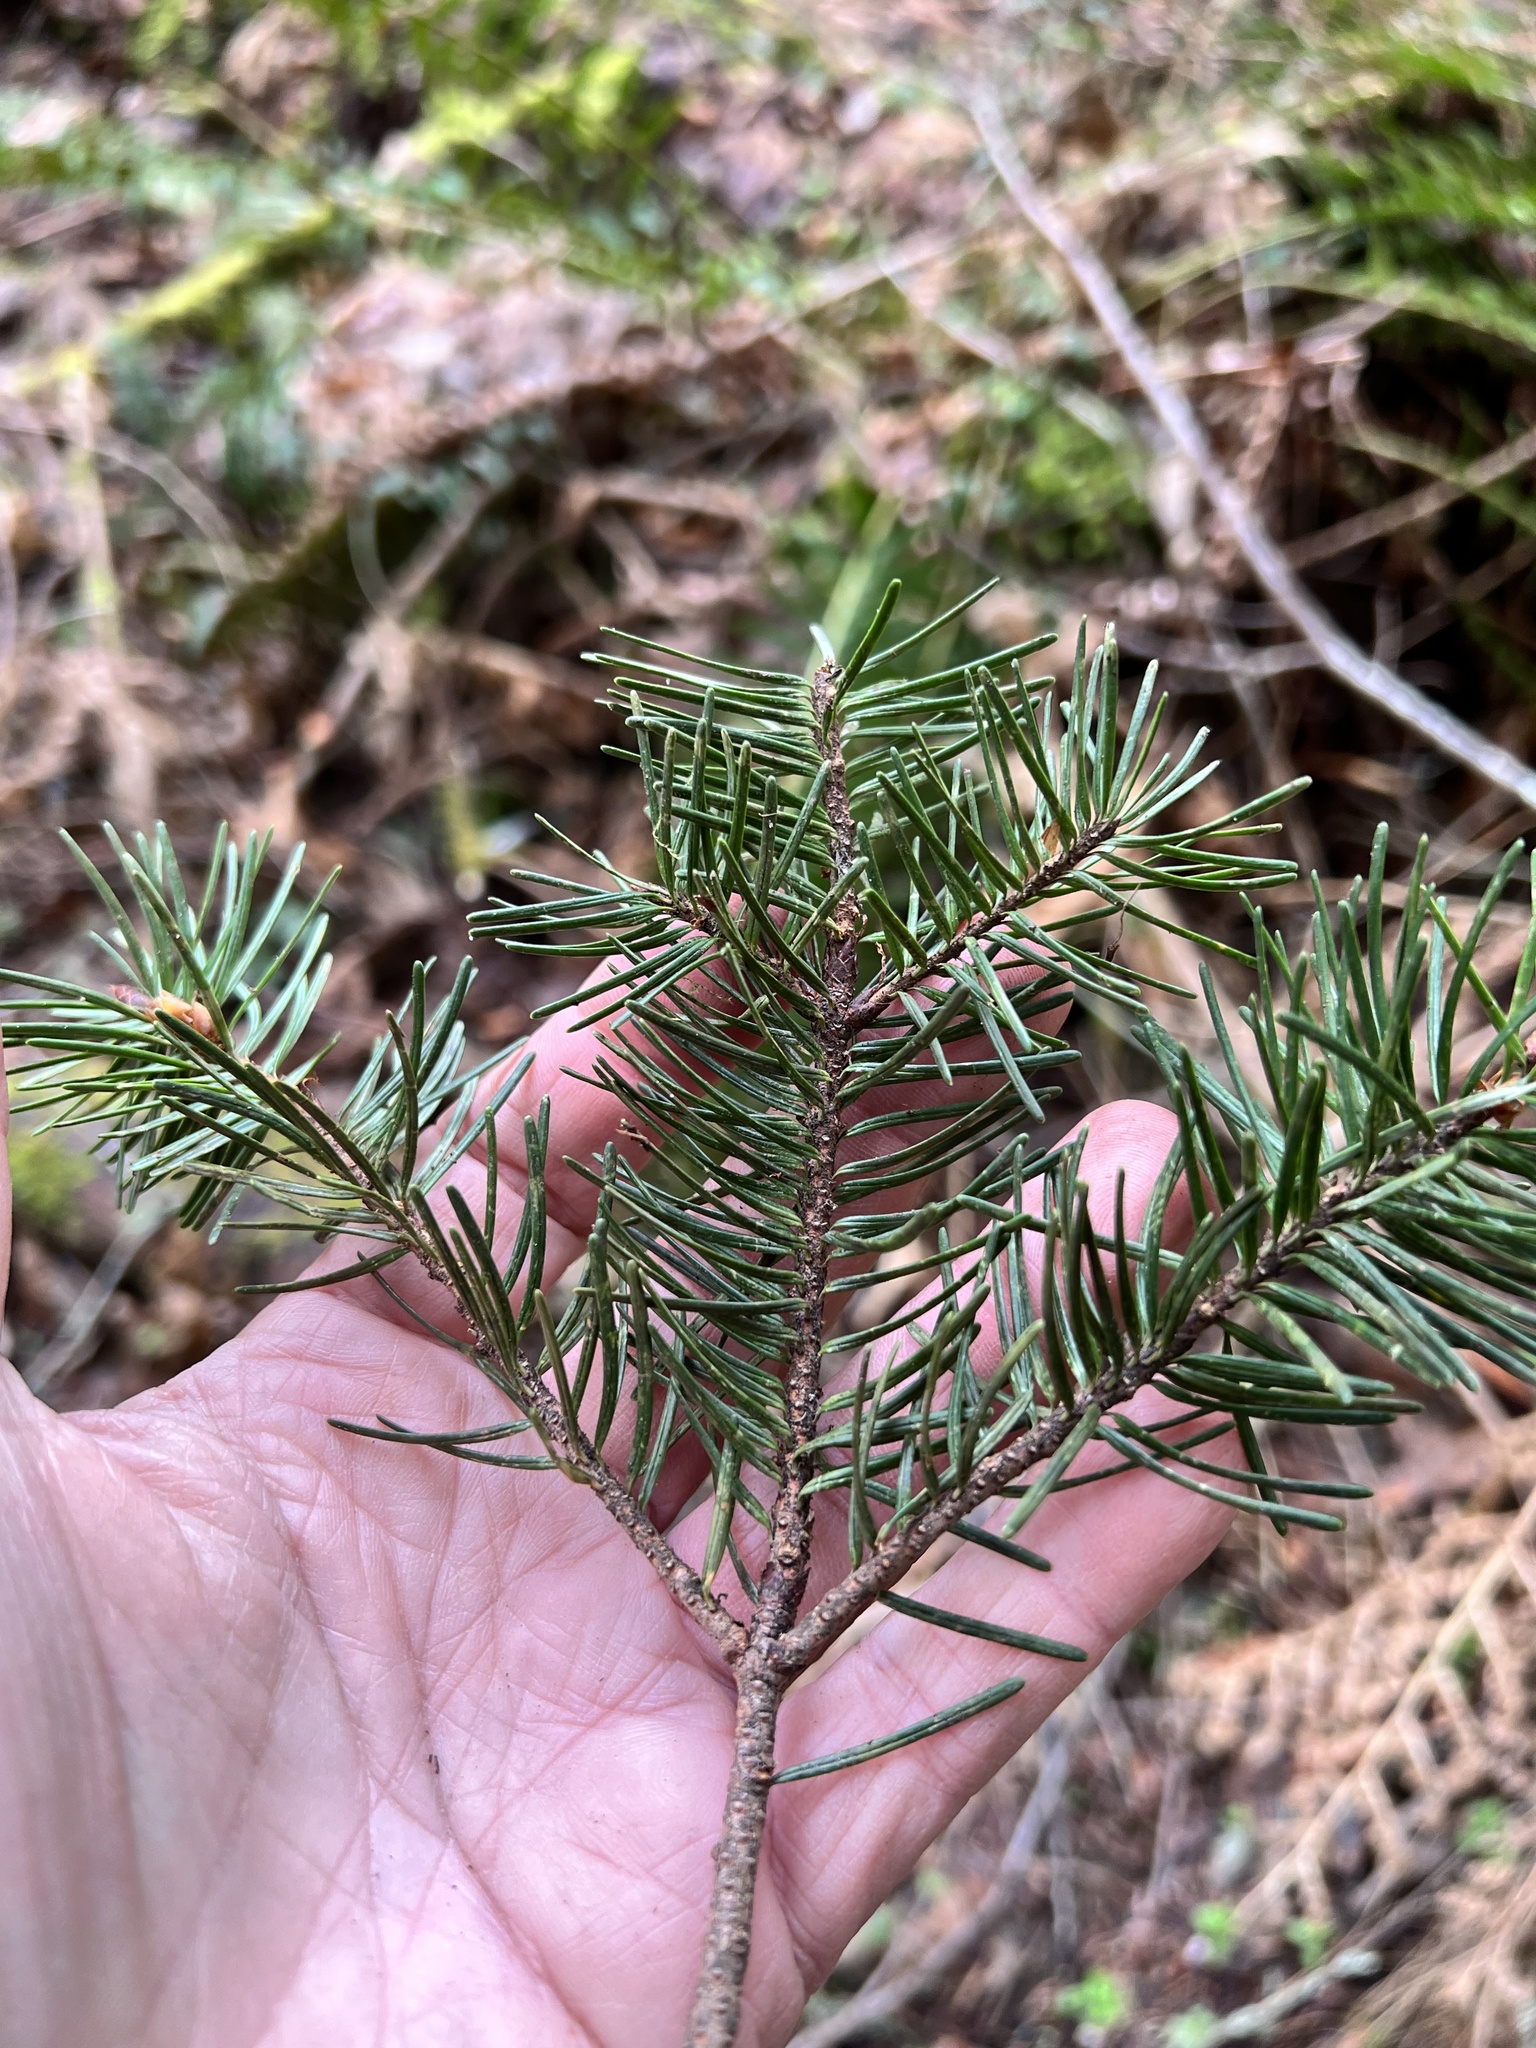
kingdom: Plantae
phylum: Tracheophyta
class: Pinopsida
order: Pinales
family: Pinaceae
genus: Pseudotsuga
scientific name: Pseudotsuga menziesii
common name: Douglas fir
